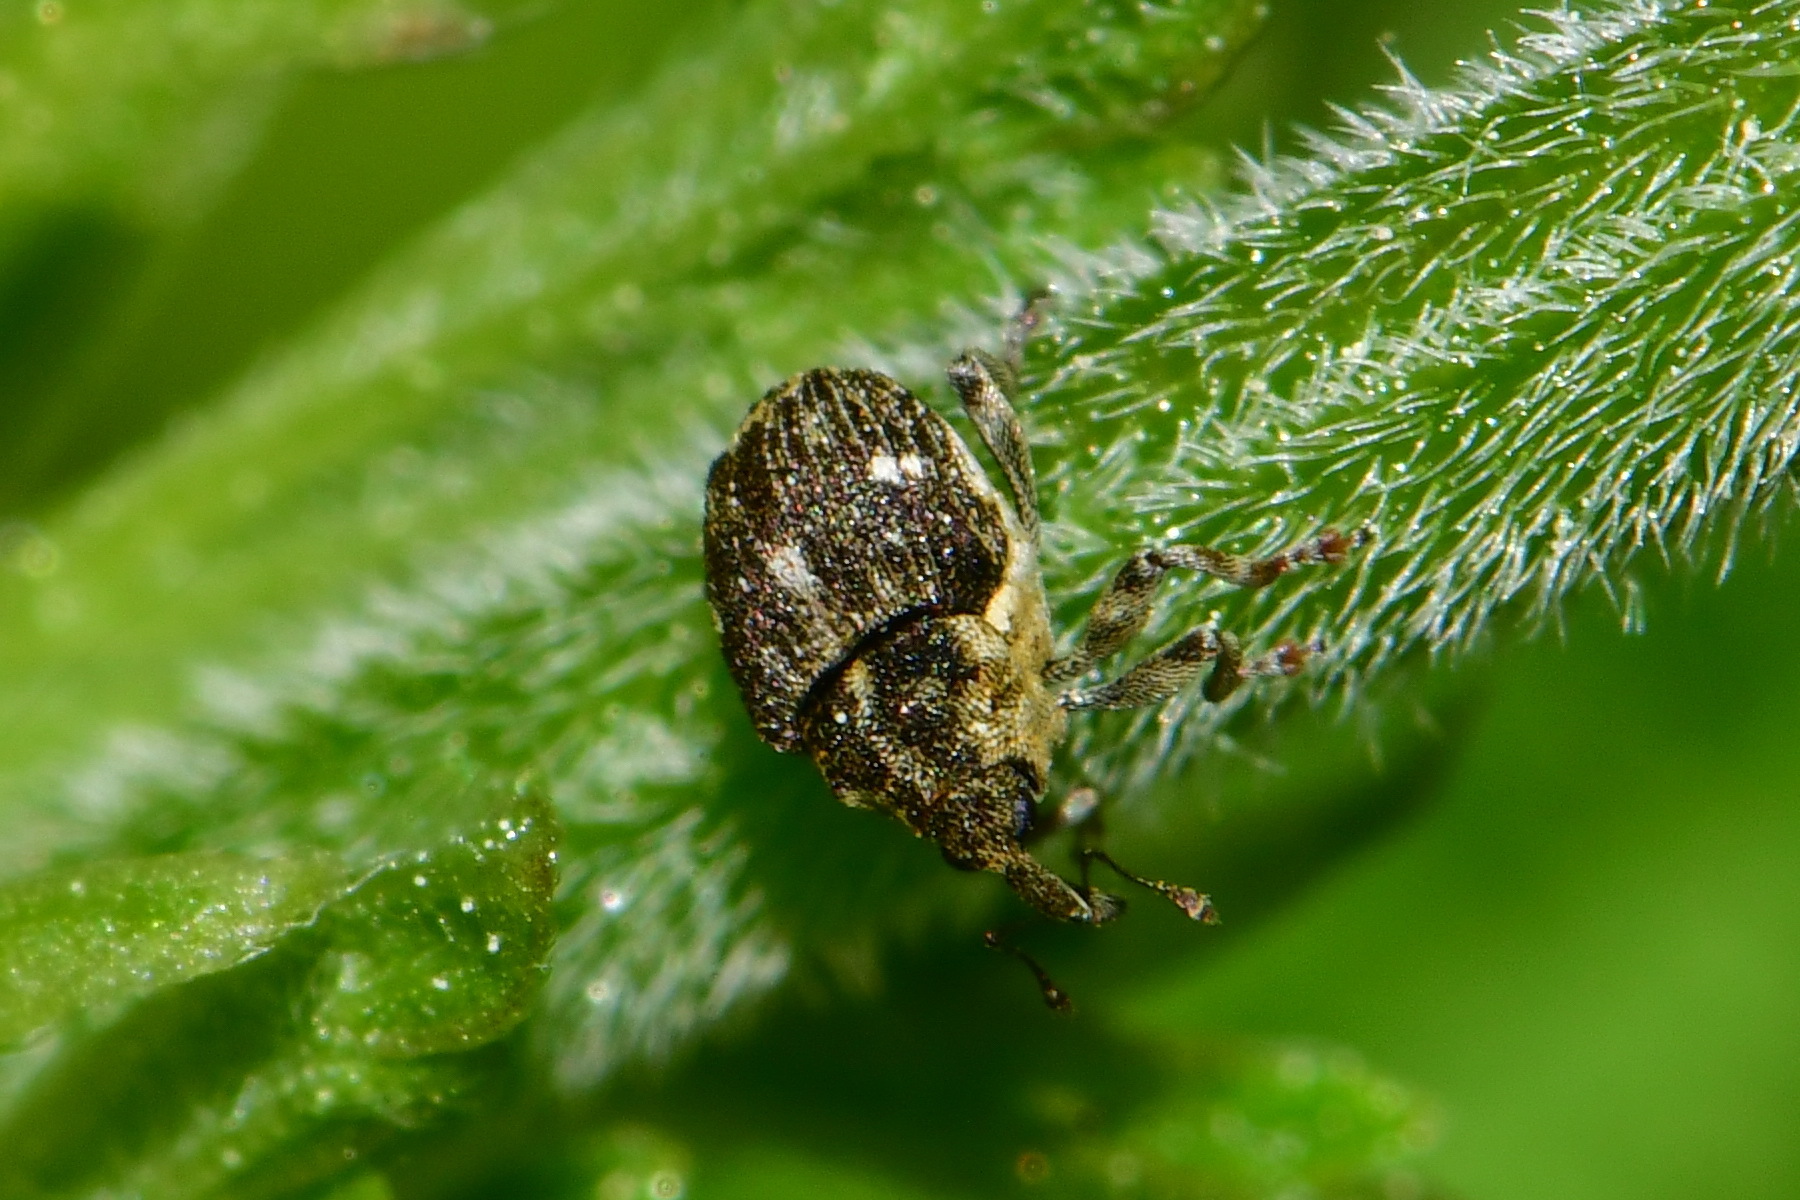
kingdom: Animalia
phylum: Arthropoda
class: Insecta
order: Coleoptera
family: Curculionidae
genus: Nedyus
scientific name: Nedyus quadrimaculatus
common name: Small nettle weevil
